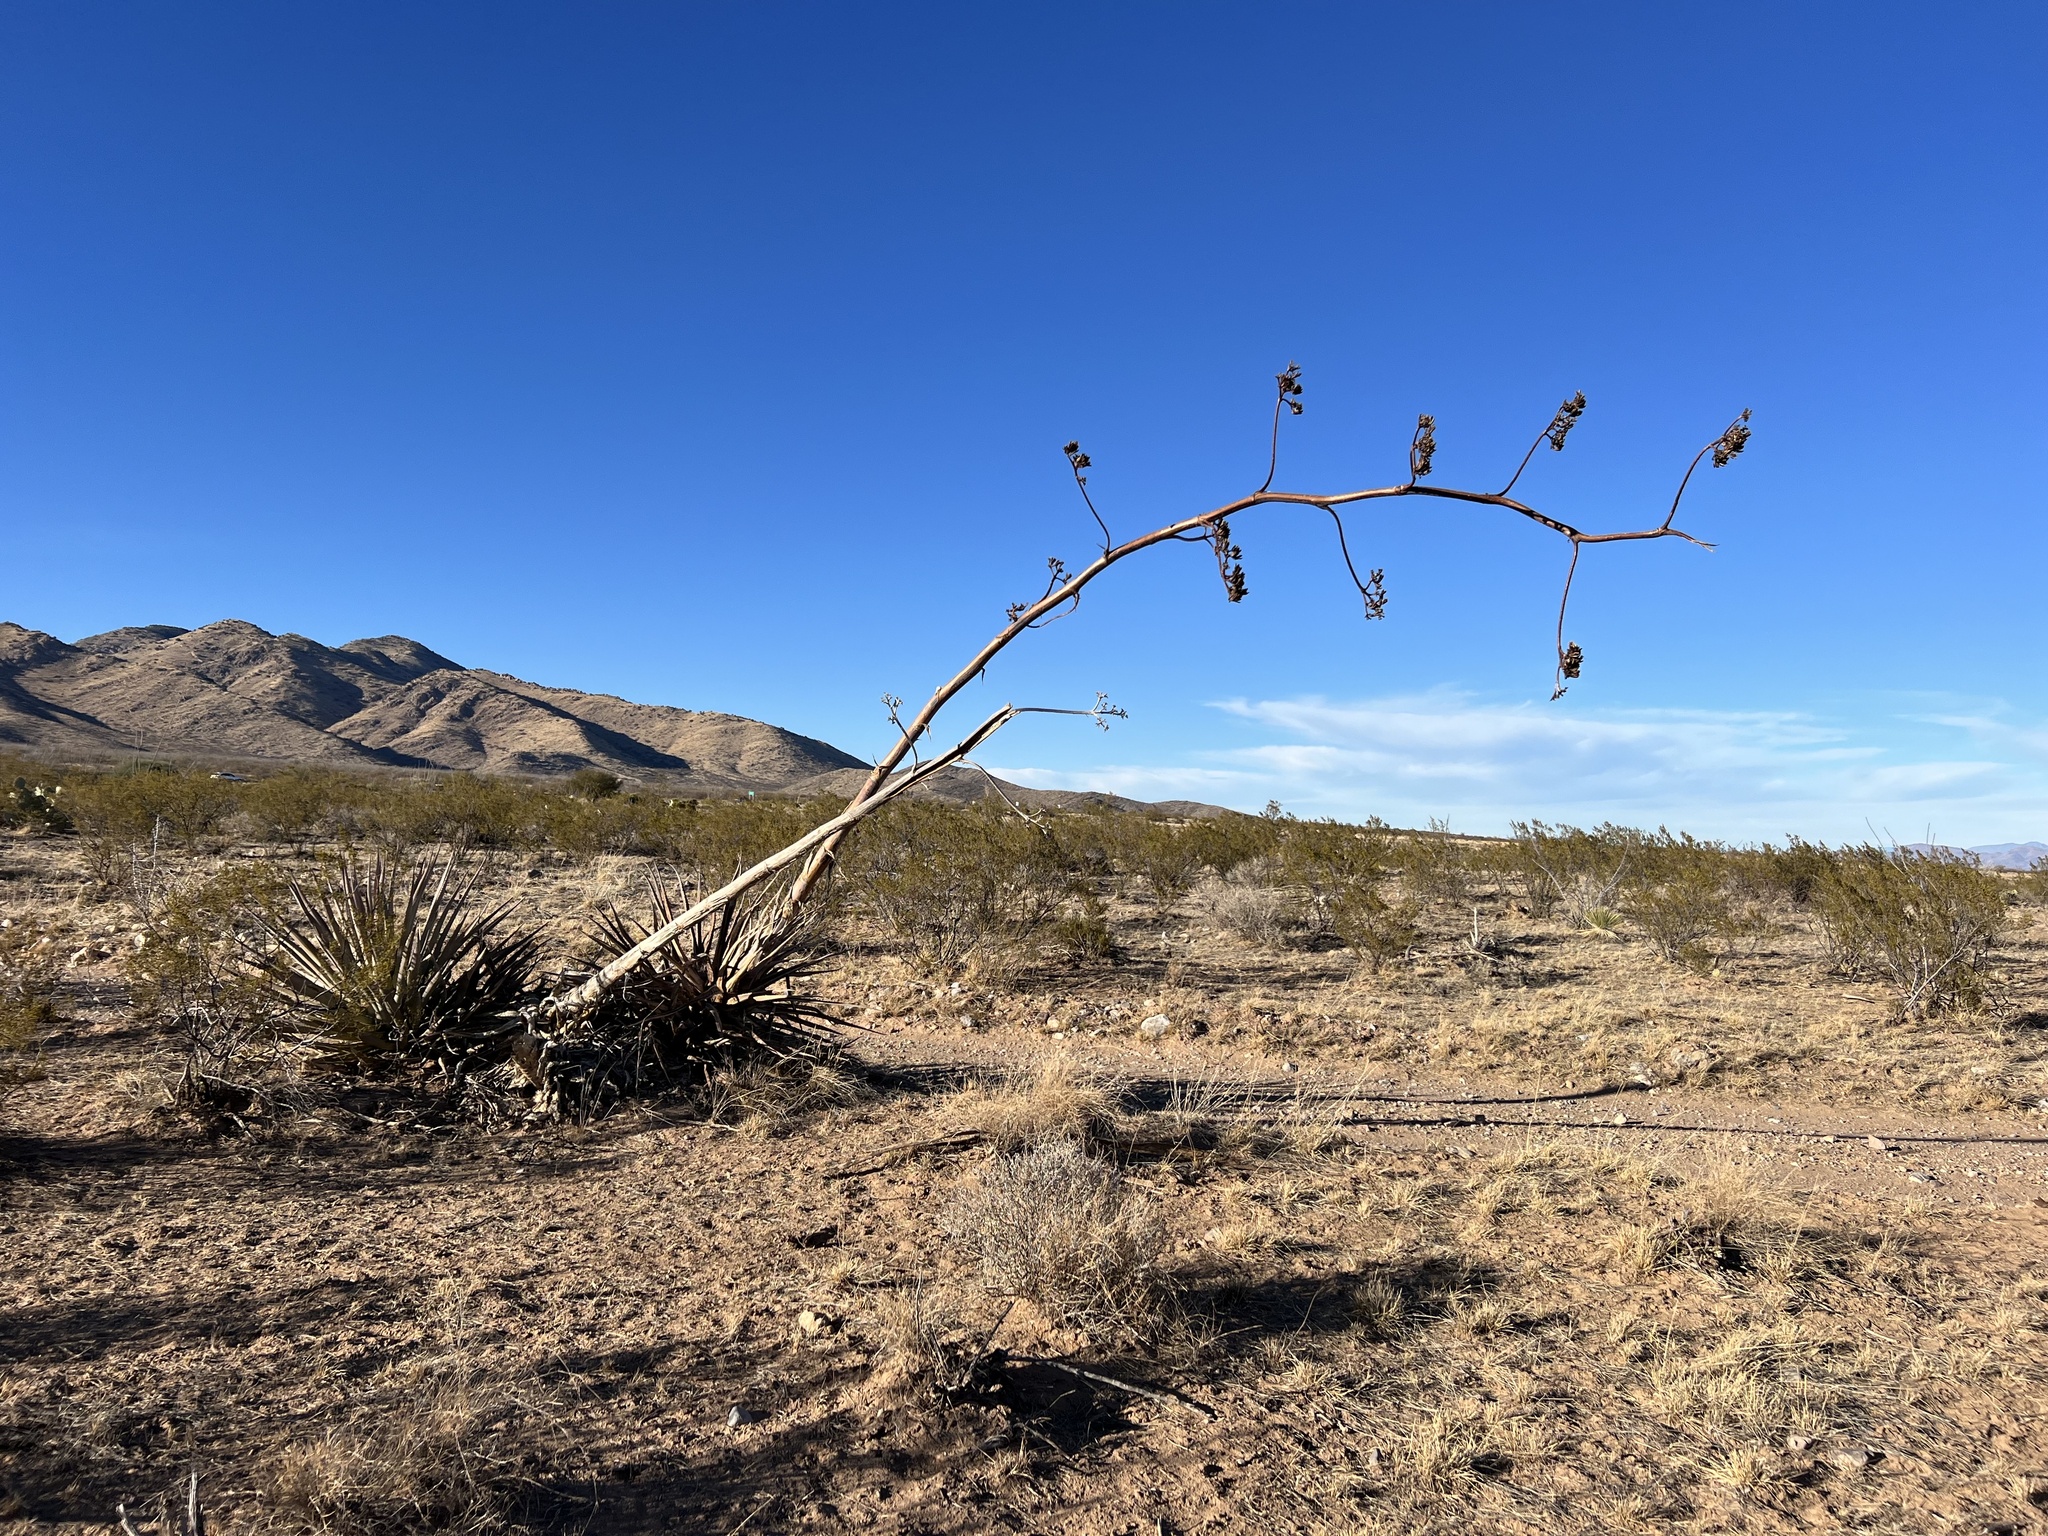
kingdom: Plantae
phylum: Tracheophyta
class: Liliopsida
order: Asparagales
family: Asparagaceae
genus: Agave
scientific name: Agave palmeri
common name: Palmer agave
